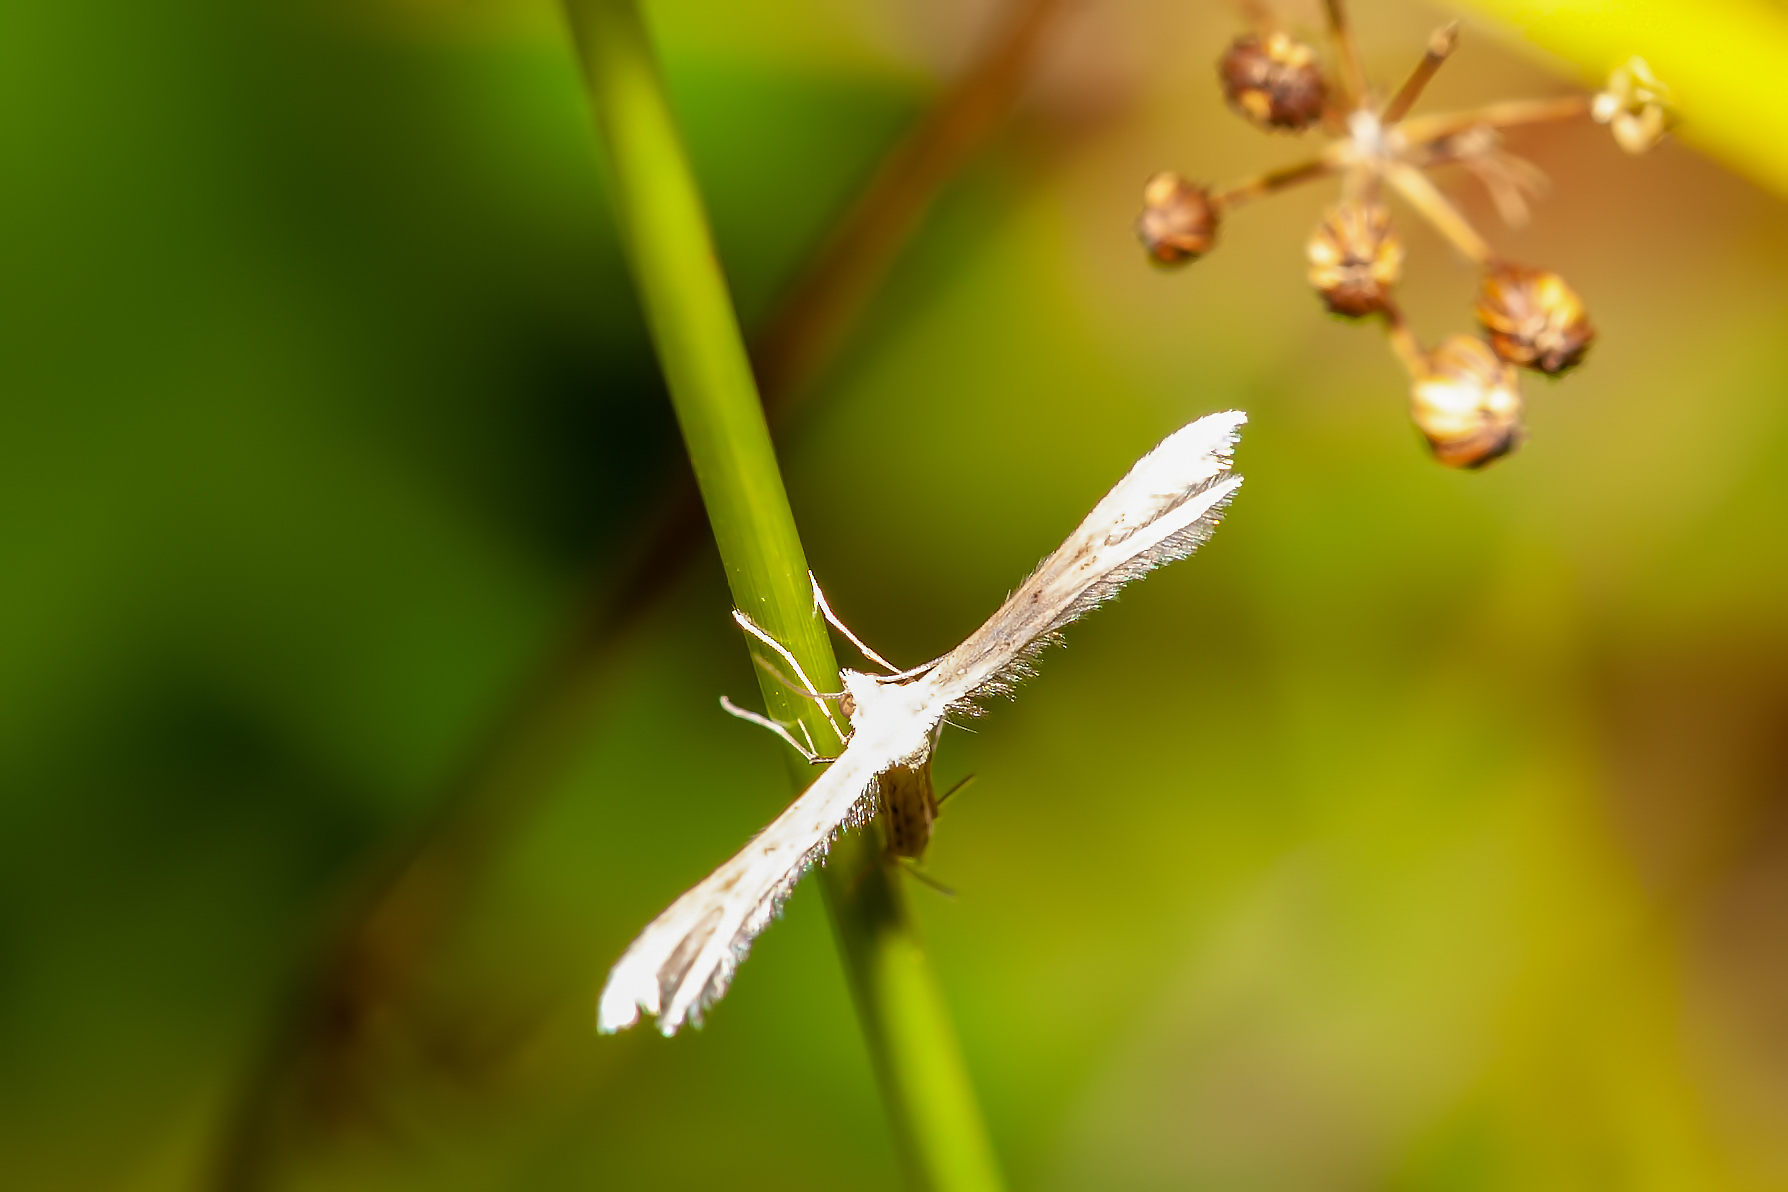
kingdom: Animalia
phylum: Arthropoda
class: Insecta
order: Lepidoptera
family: Pterophoridae
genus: Exelastis
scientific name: Exelastis pumilio
